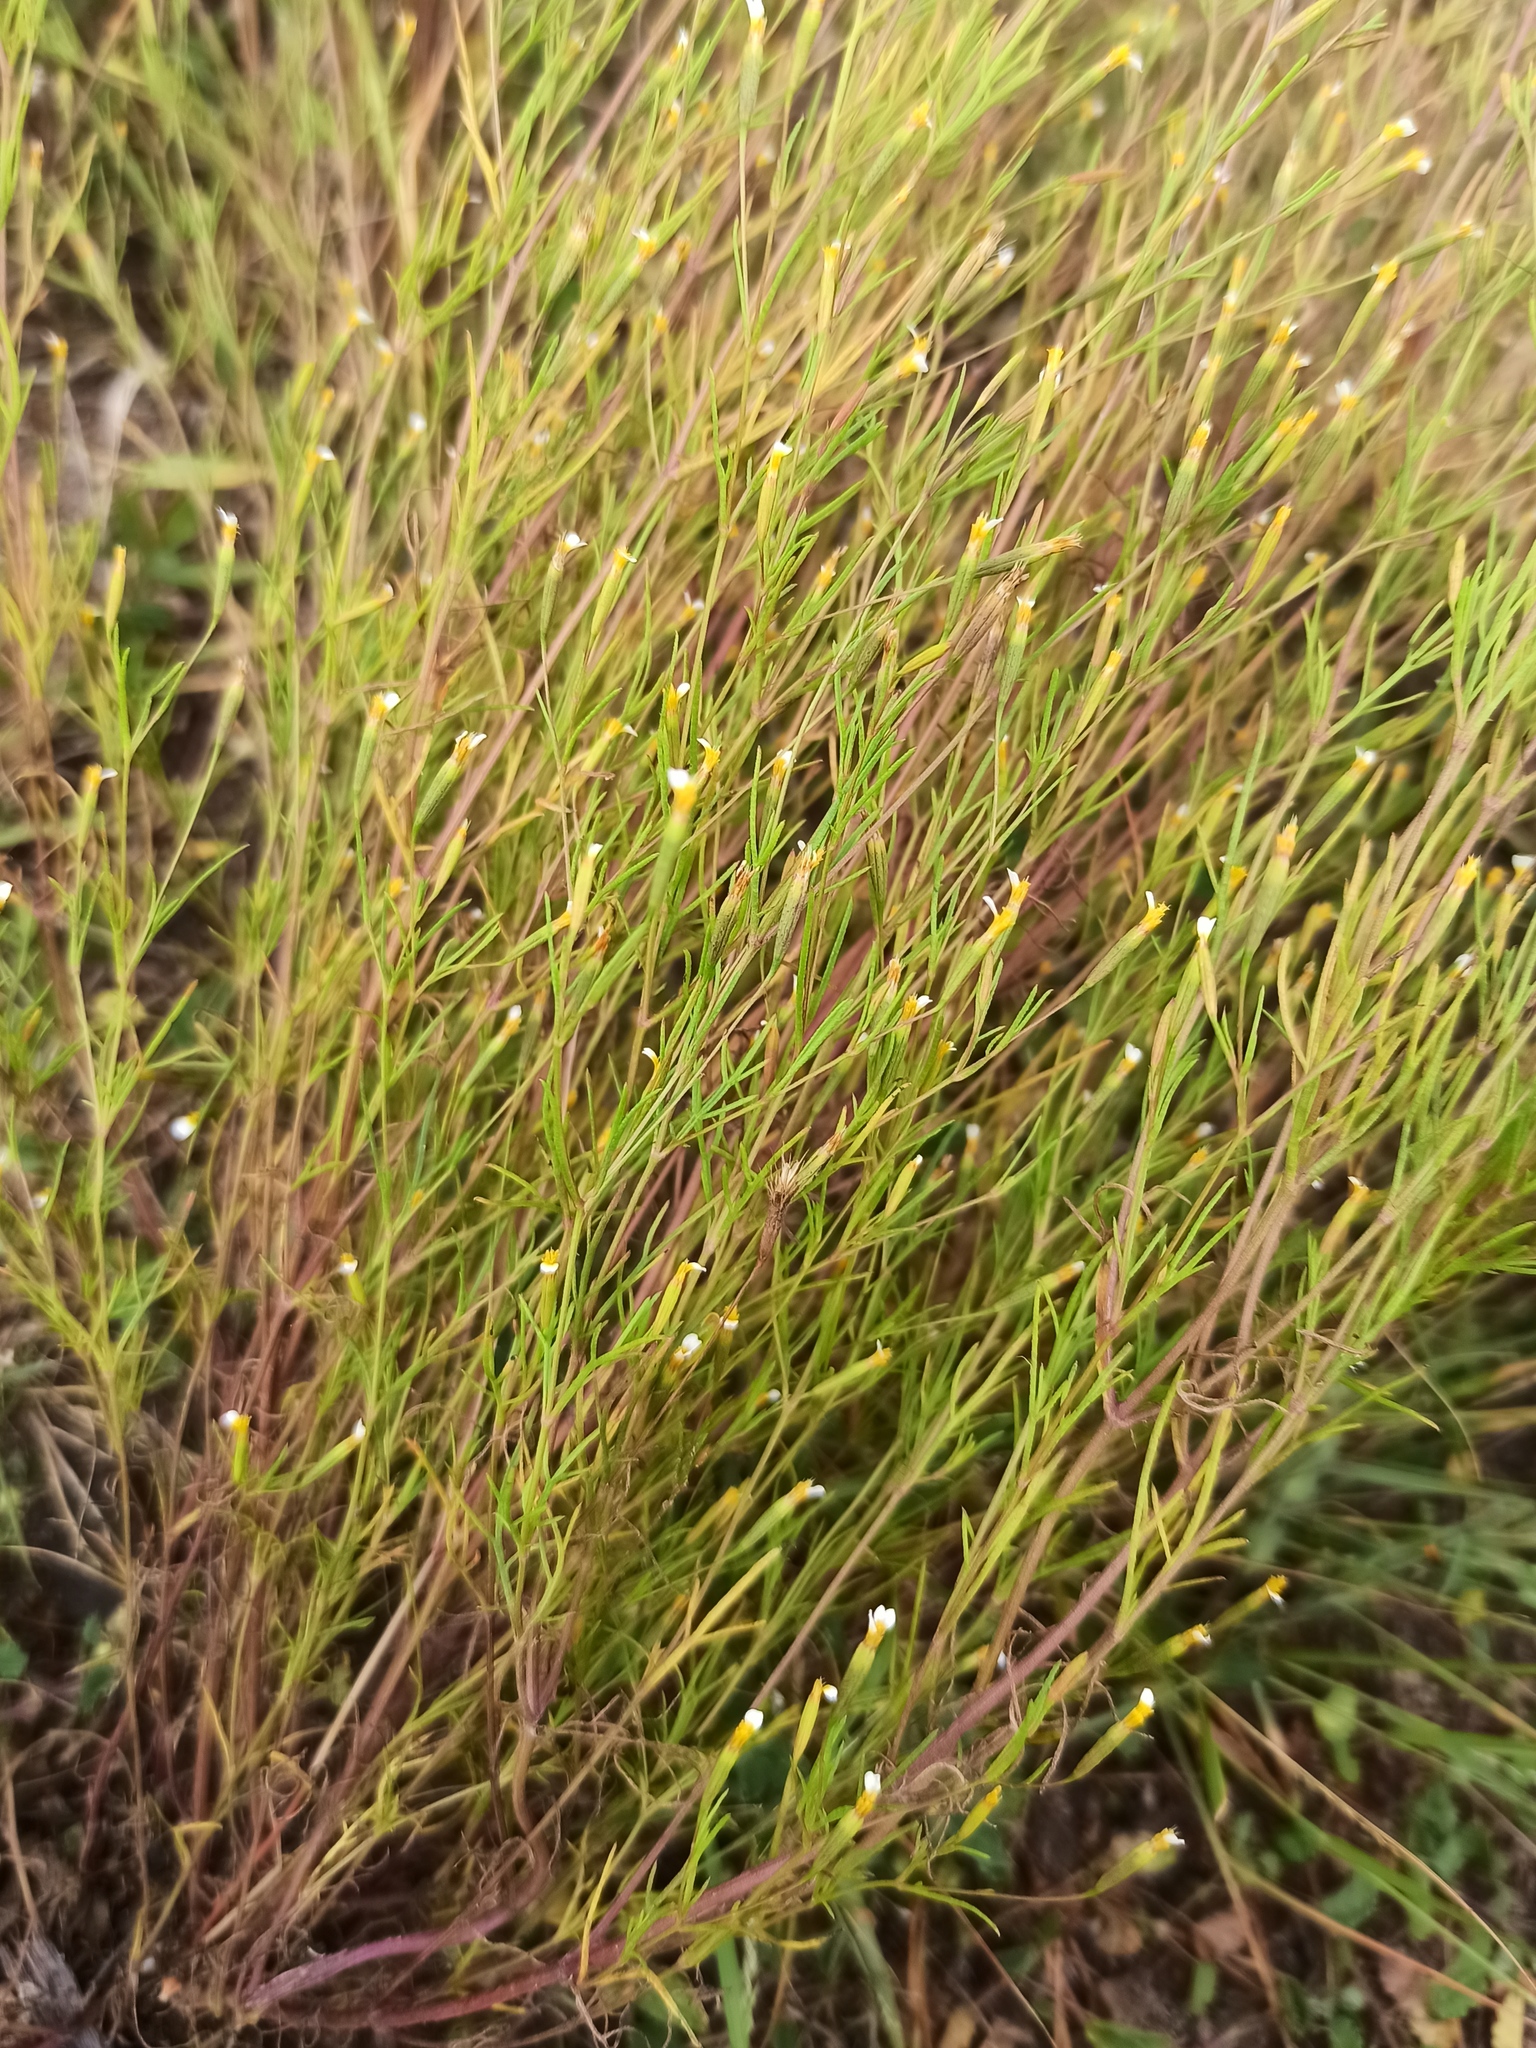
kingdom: Plantae
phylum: Tracheophyta
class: Magnoliopsida
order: Asterales
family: Asteraceae
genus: Tagetes
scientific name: Tagetes micrantha
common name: Licorice marigold
